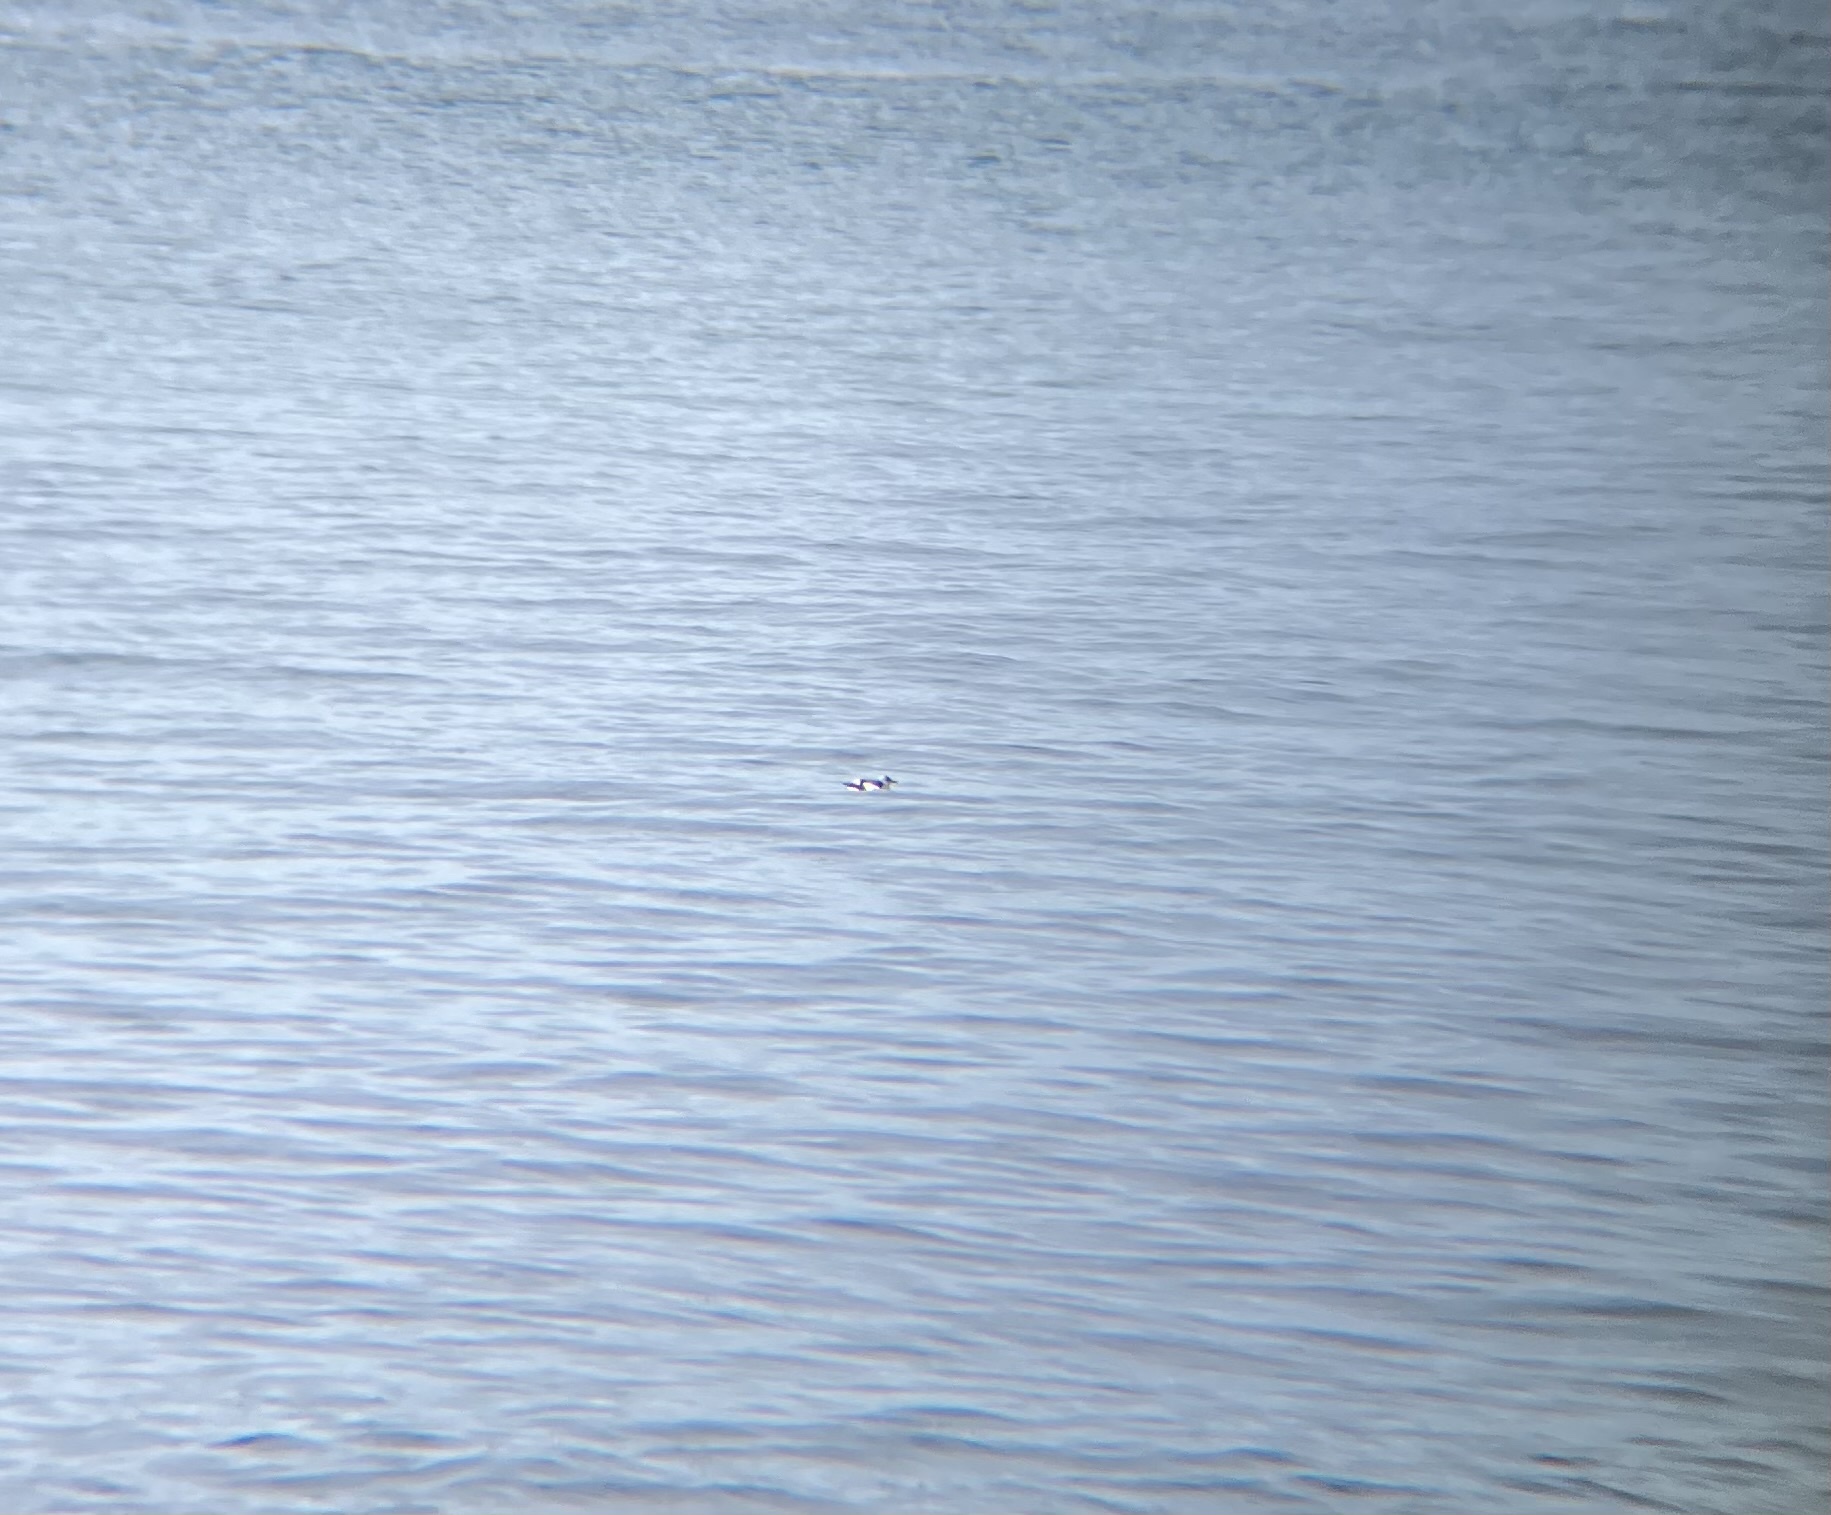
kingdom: Animalia
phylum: Chordata
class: Aves
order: Charadriiformes
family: Alcidae
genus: Cepphus
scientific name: Cepphus grylle
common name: Black guillemot
